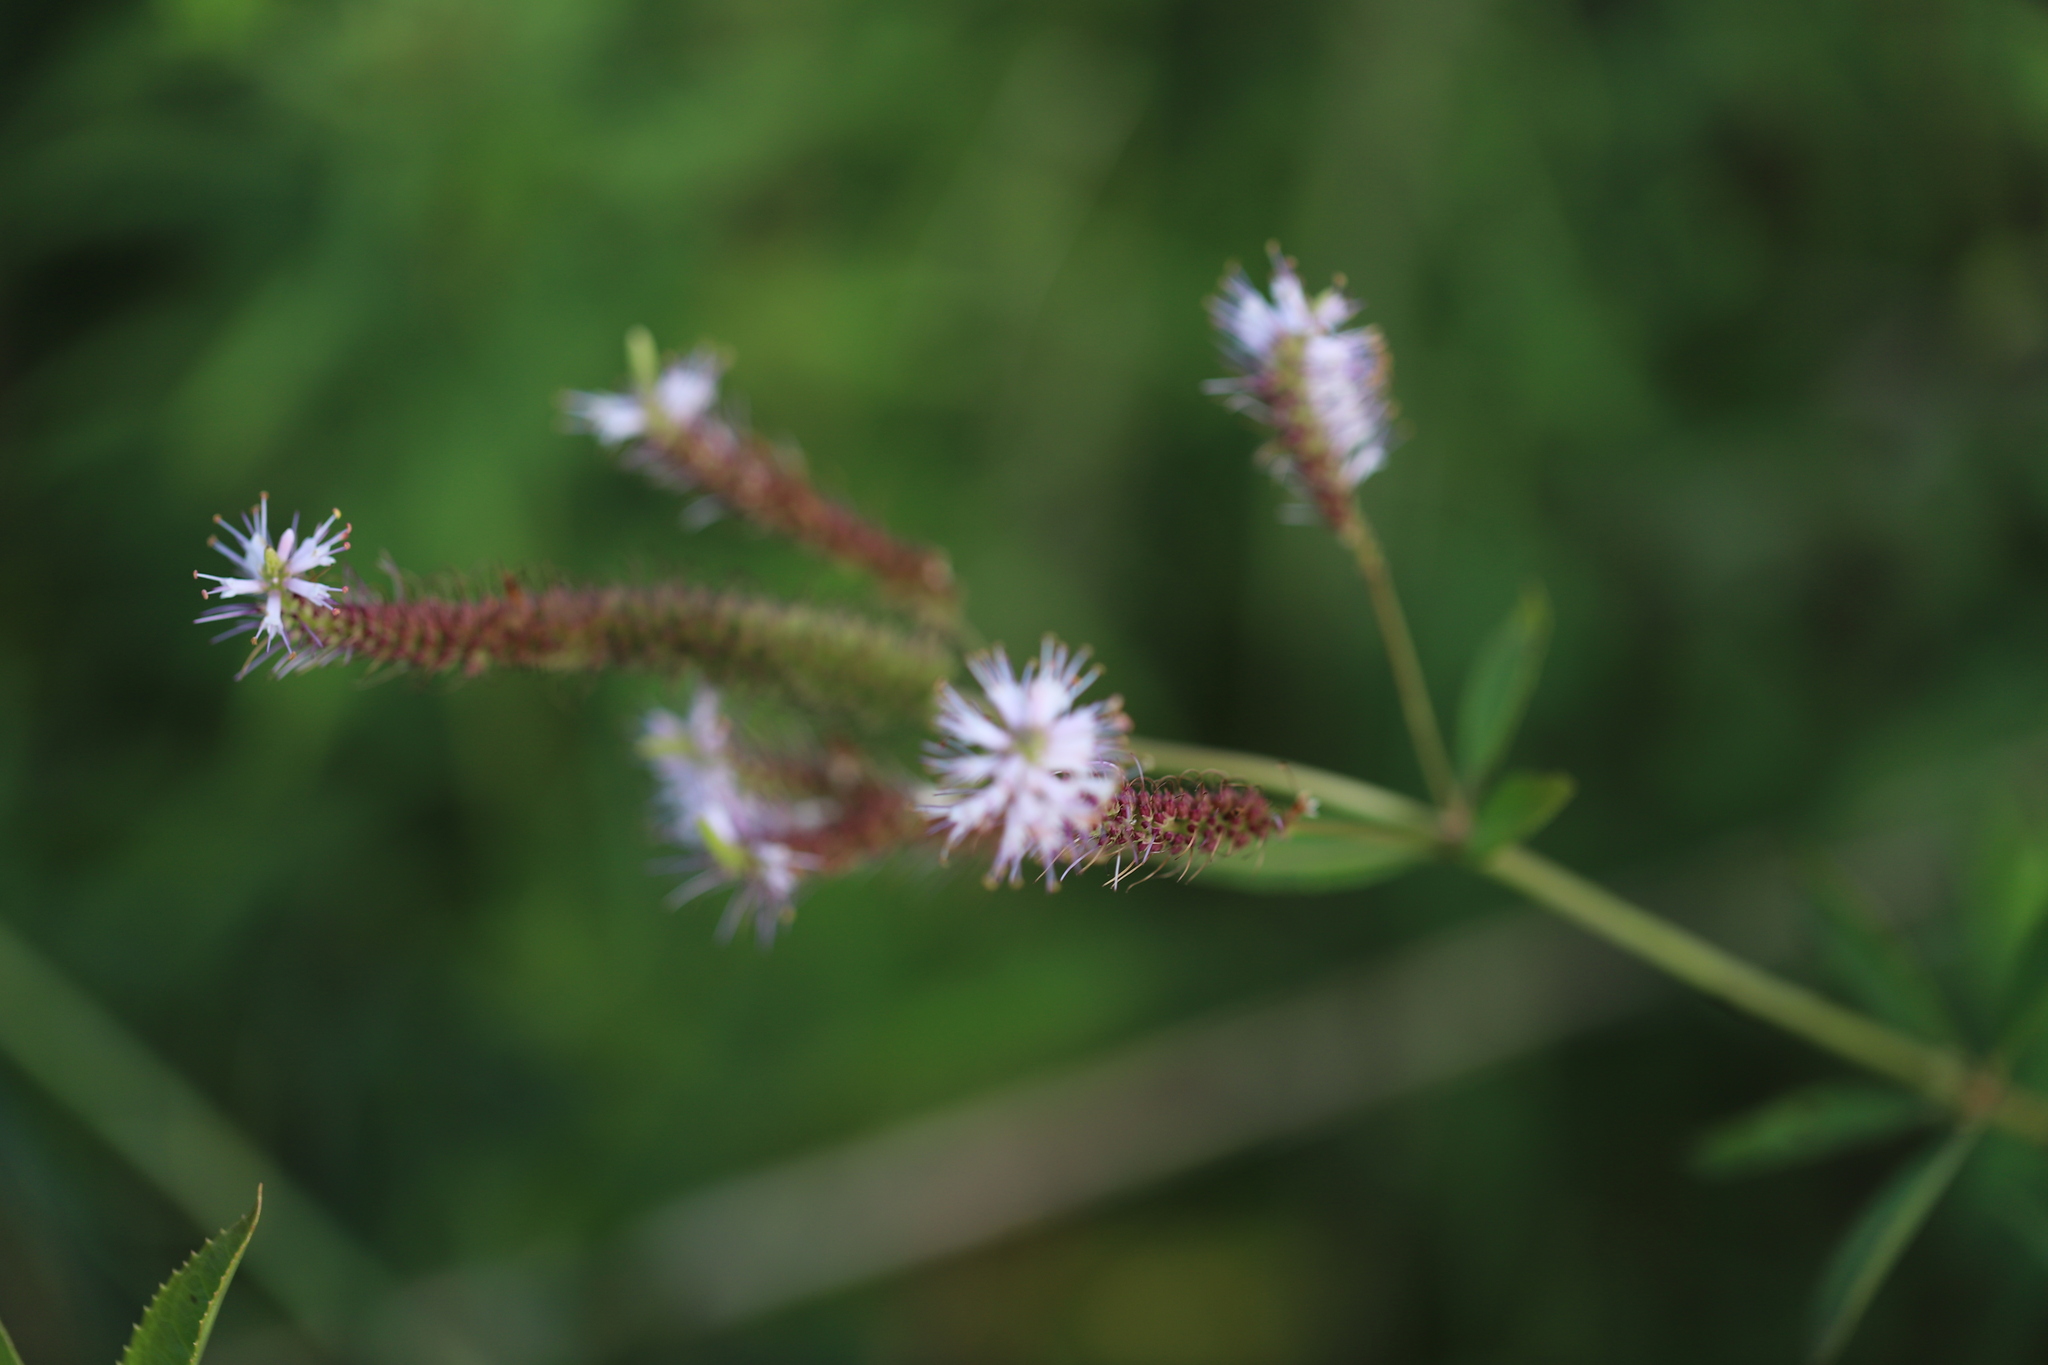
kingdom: Plantae
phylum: Tracheophyta
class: Magnoliopsida
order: Lamiales
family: Plantaginaceae
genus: Veronicastrum
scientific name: Veronicastrum virginicum
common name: Blackroot
